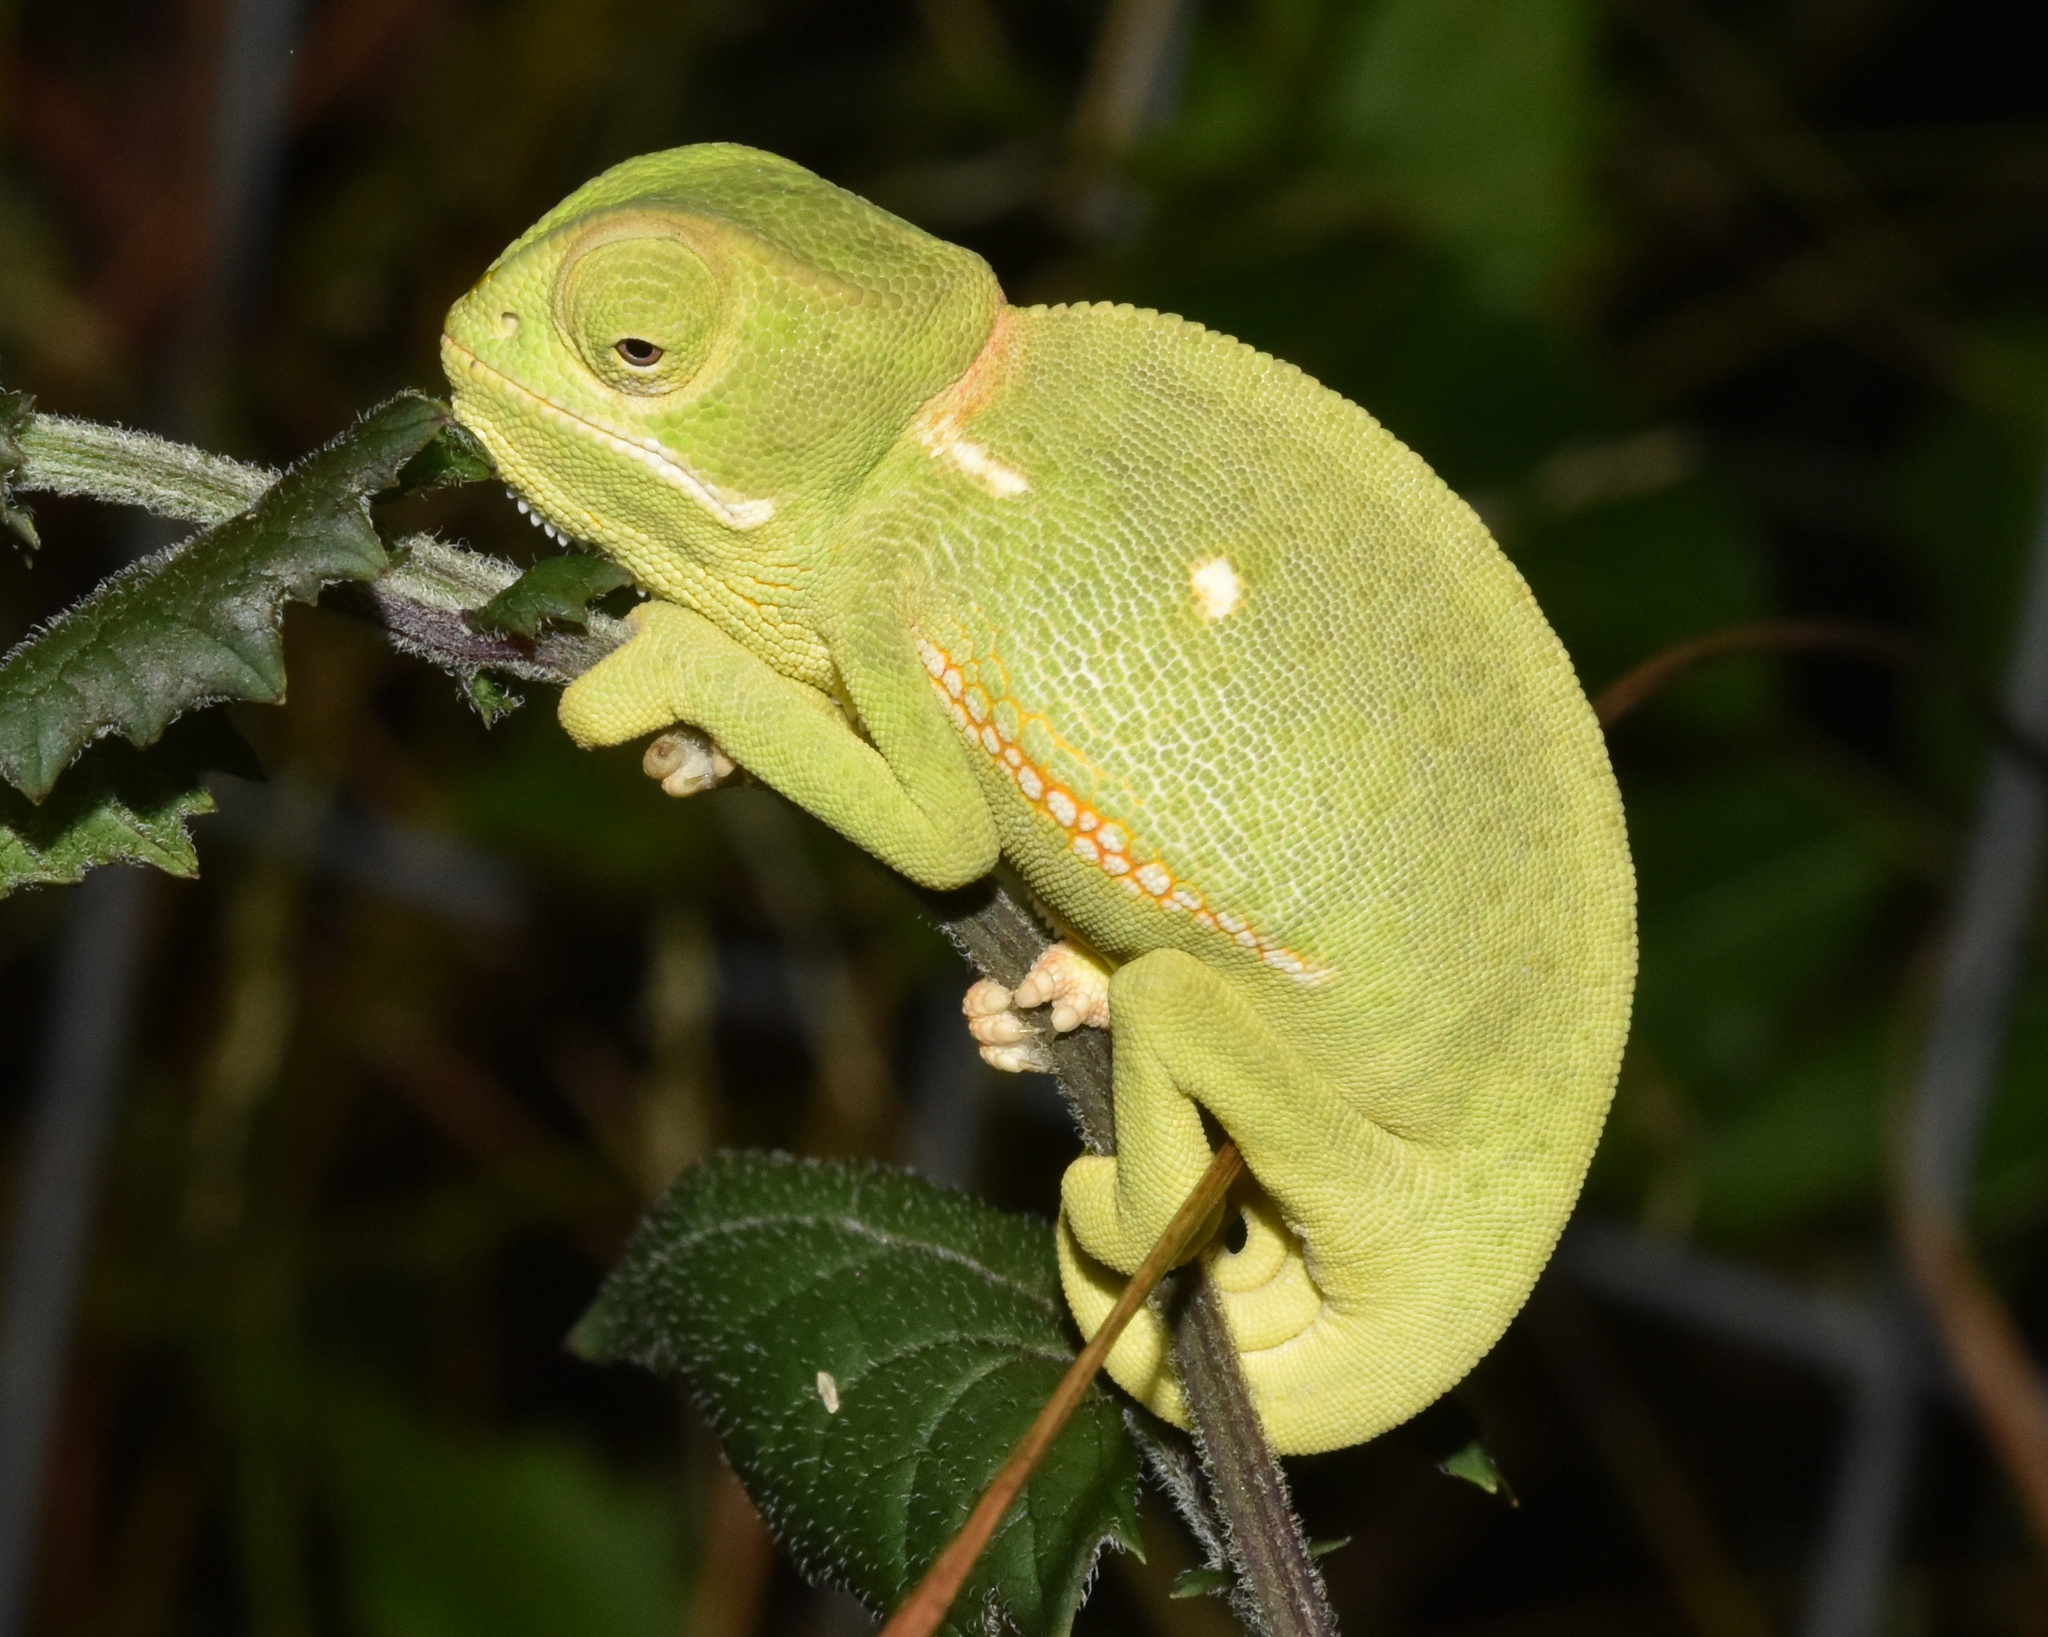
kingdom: Animalia
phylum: Chordata
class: Squamata
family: Chamaeleonidae
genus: Chamaeleo
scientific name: Chamaeleo dilepis
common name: Flapneck chameleon
